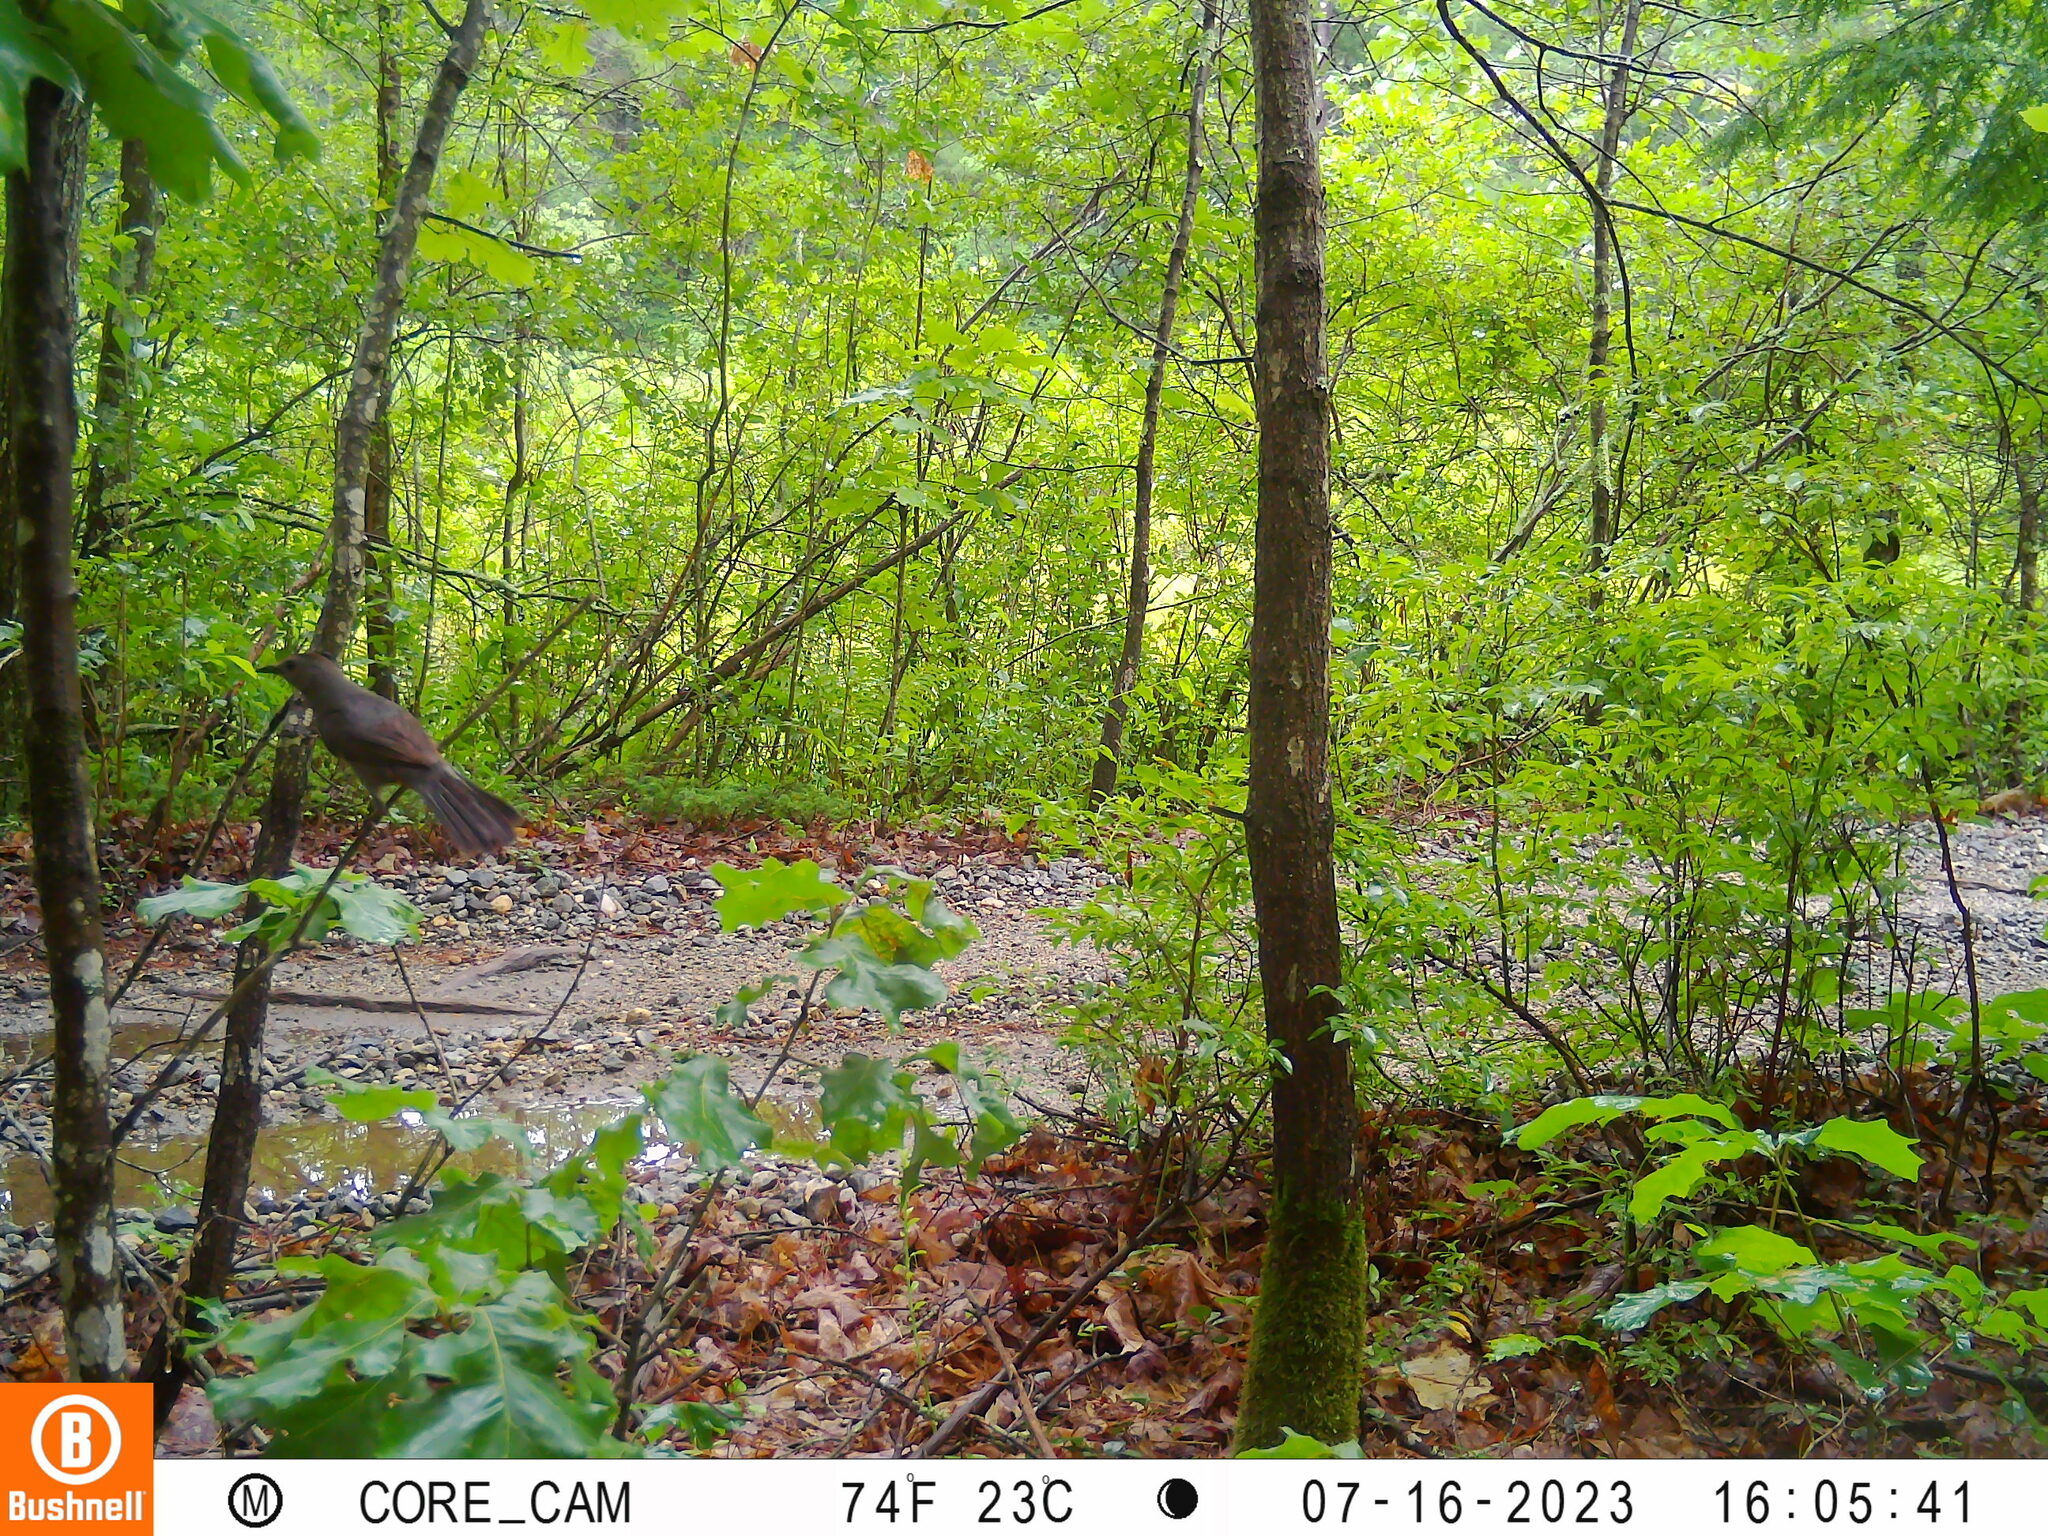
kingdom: Animalia
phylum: Chordata
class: Aves
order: Passeriformes
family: Mimidae
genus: Dumetella
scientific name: Dumetella carolinensis
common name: Gray catbird
